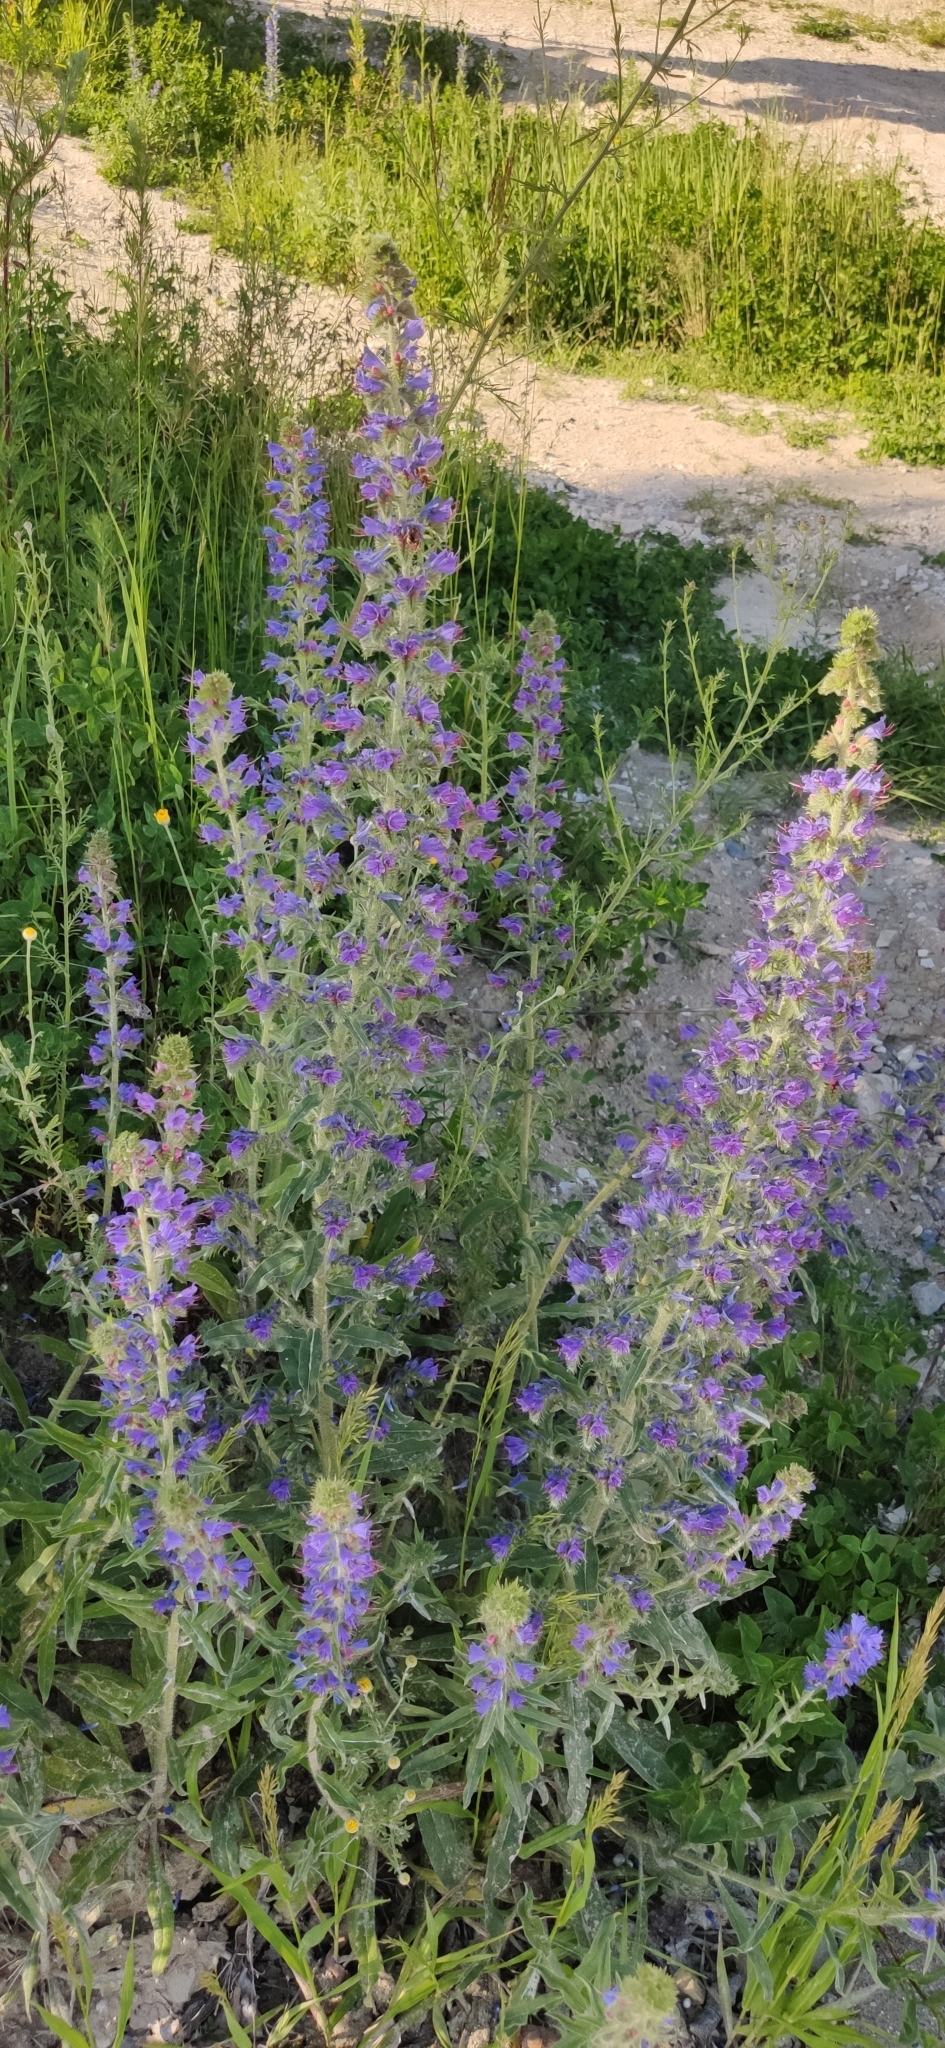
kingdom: Plantae
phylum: Tracheophyta
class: Magnoliopsida
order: Boraginales
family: Boraginaceae
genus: Echium
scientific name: Echium vulgare
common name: Common viper's bugloss
